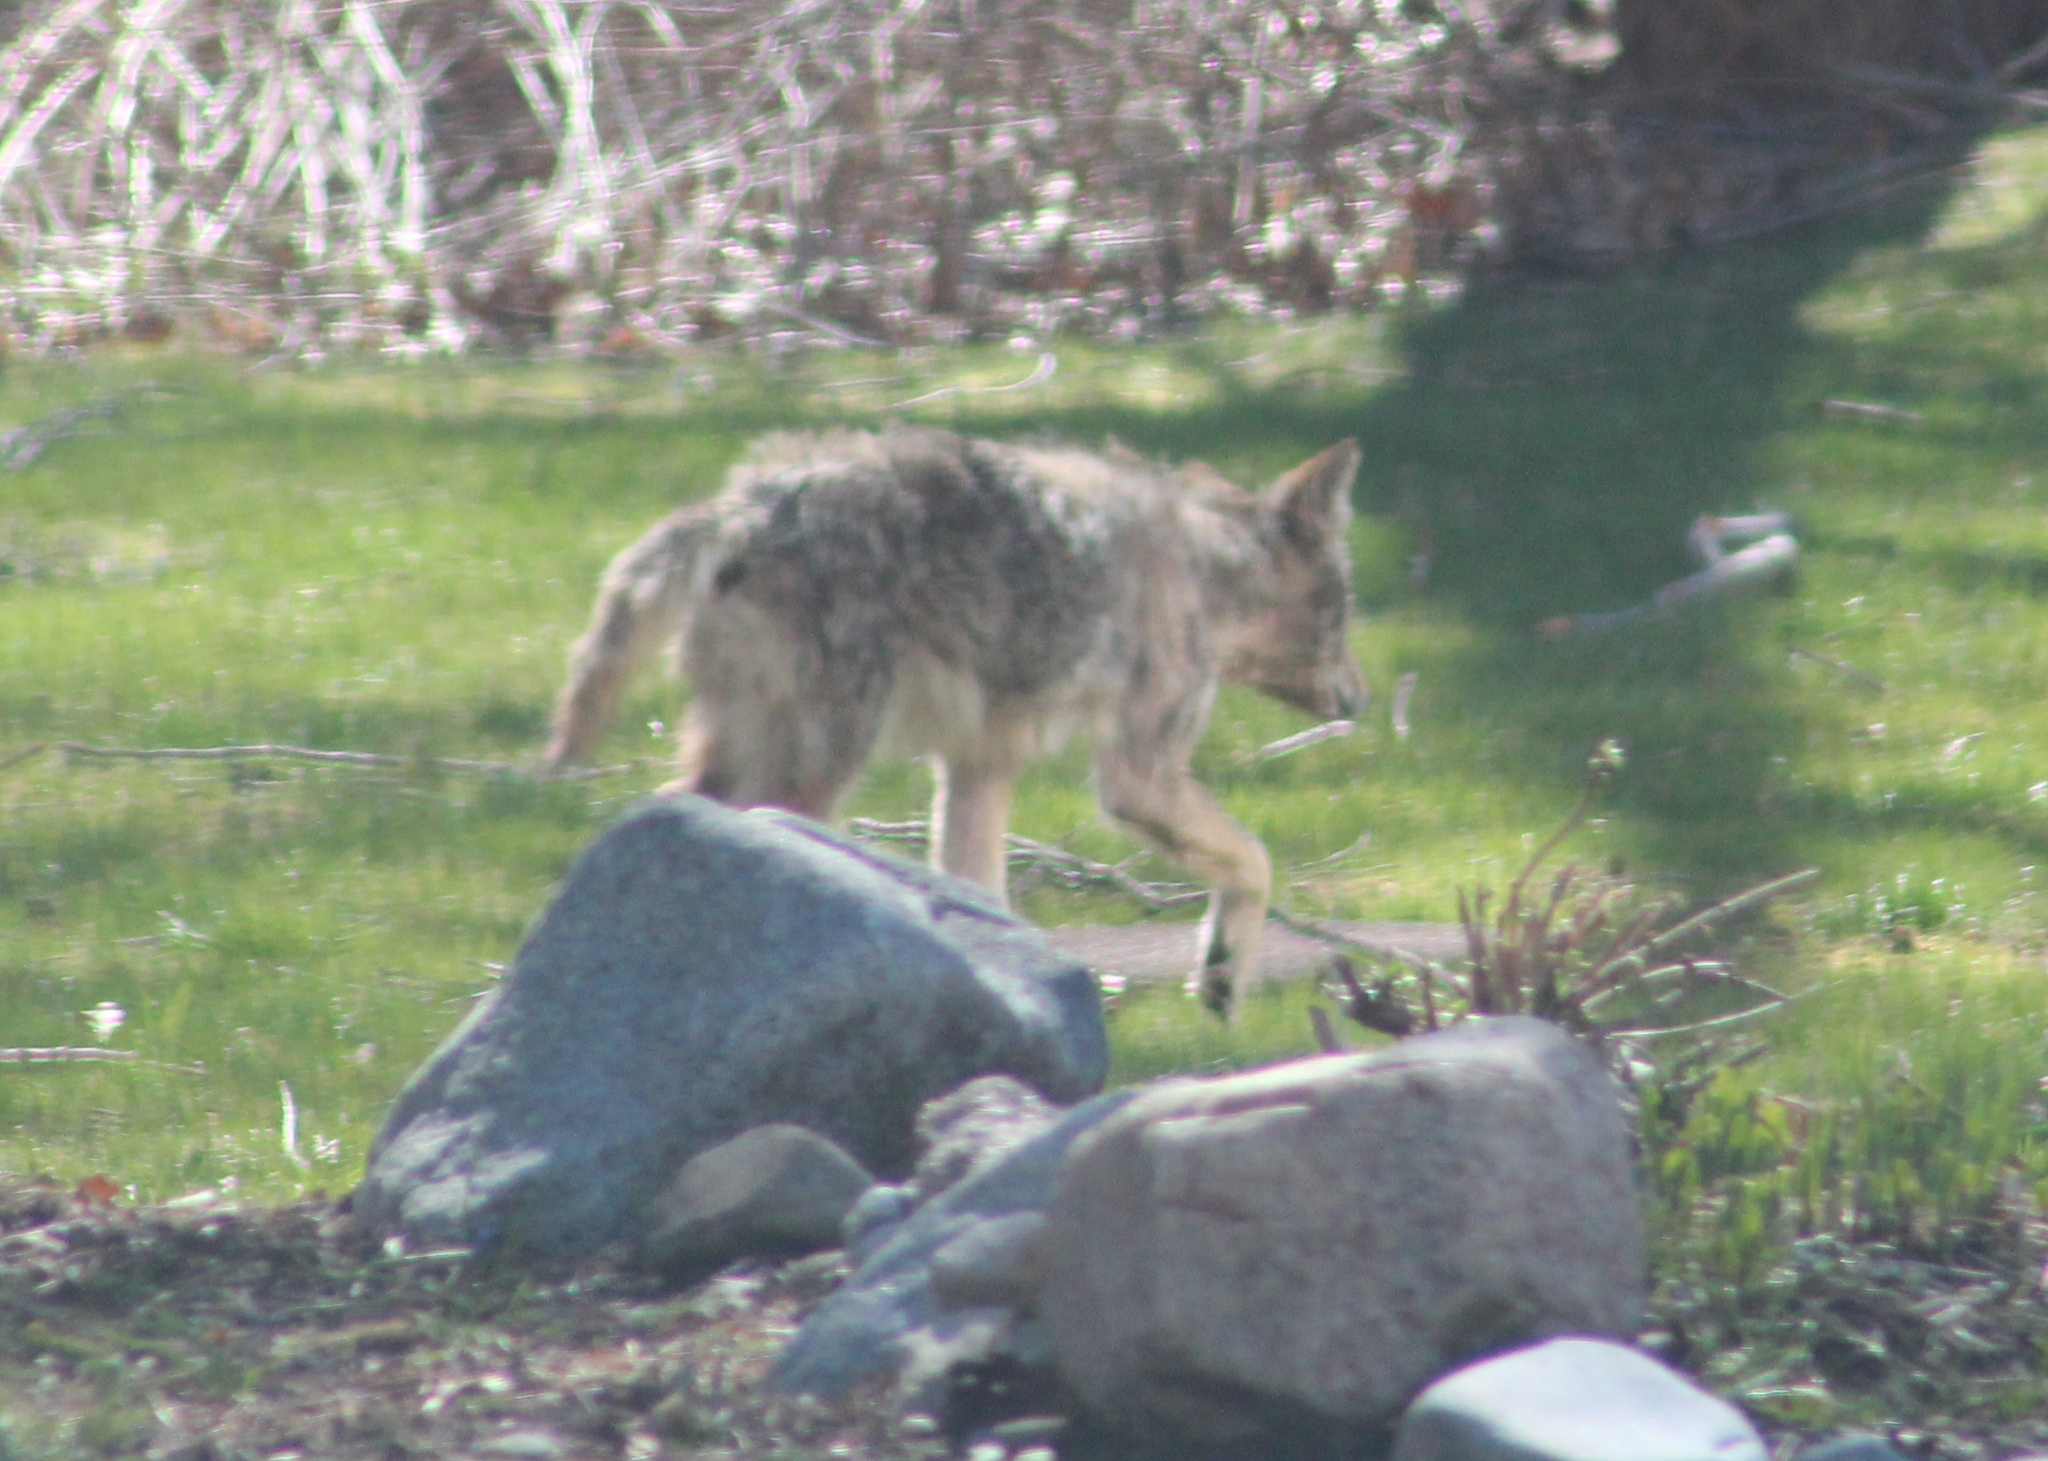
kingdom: Animalia
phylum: Chordata
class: Mammalia
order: Carnivora
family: Canidae
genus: Canis
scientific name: Canis latrans
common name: Coyote
